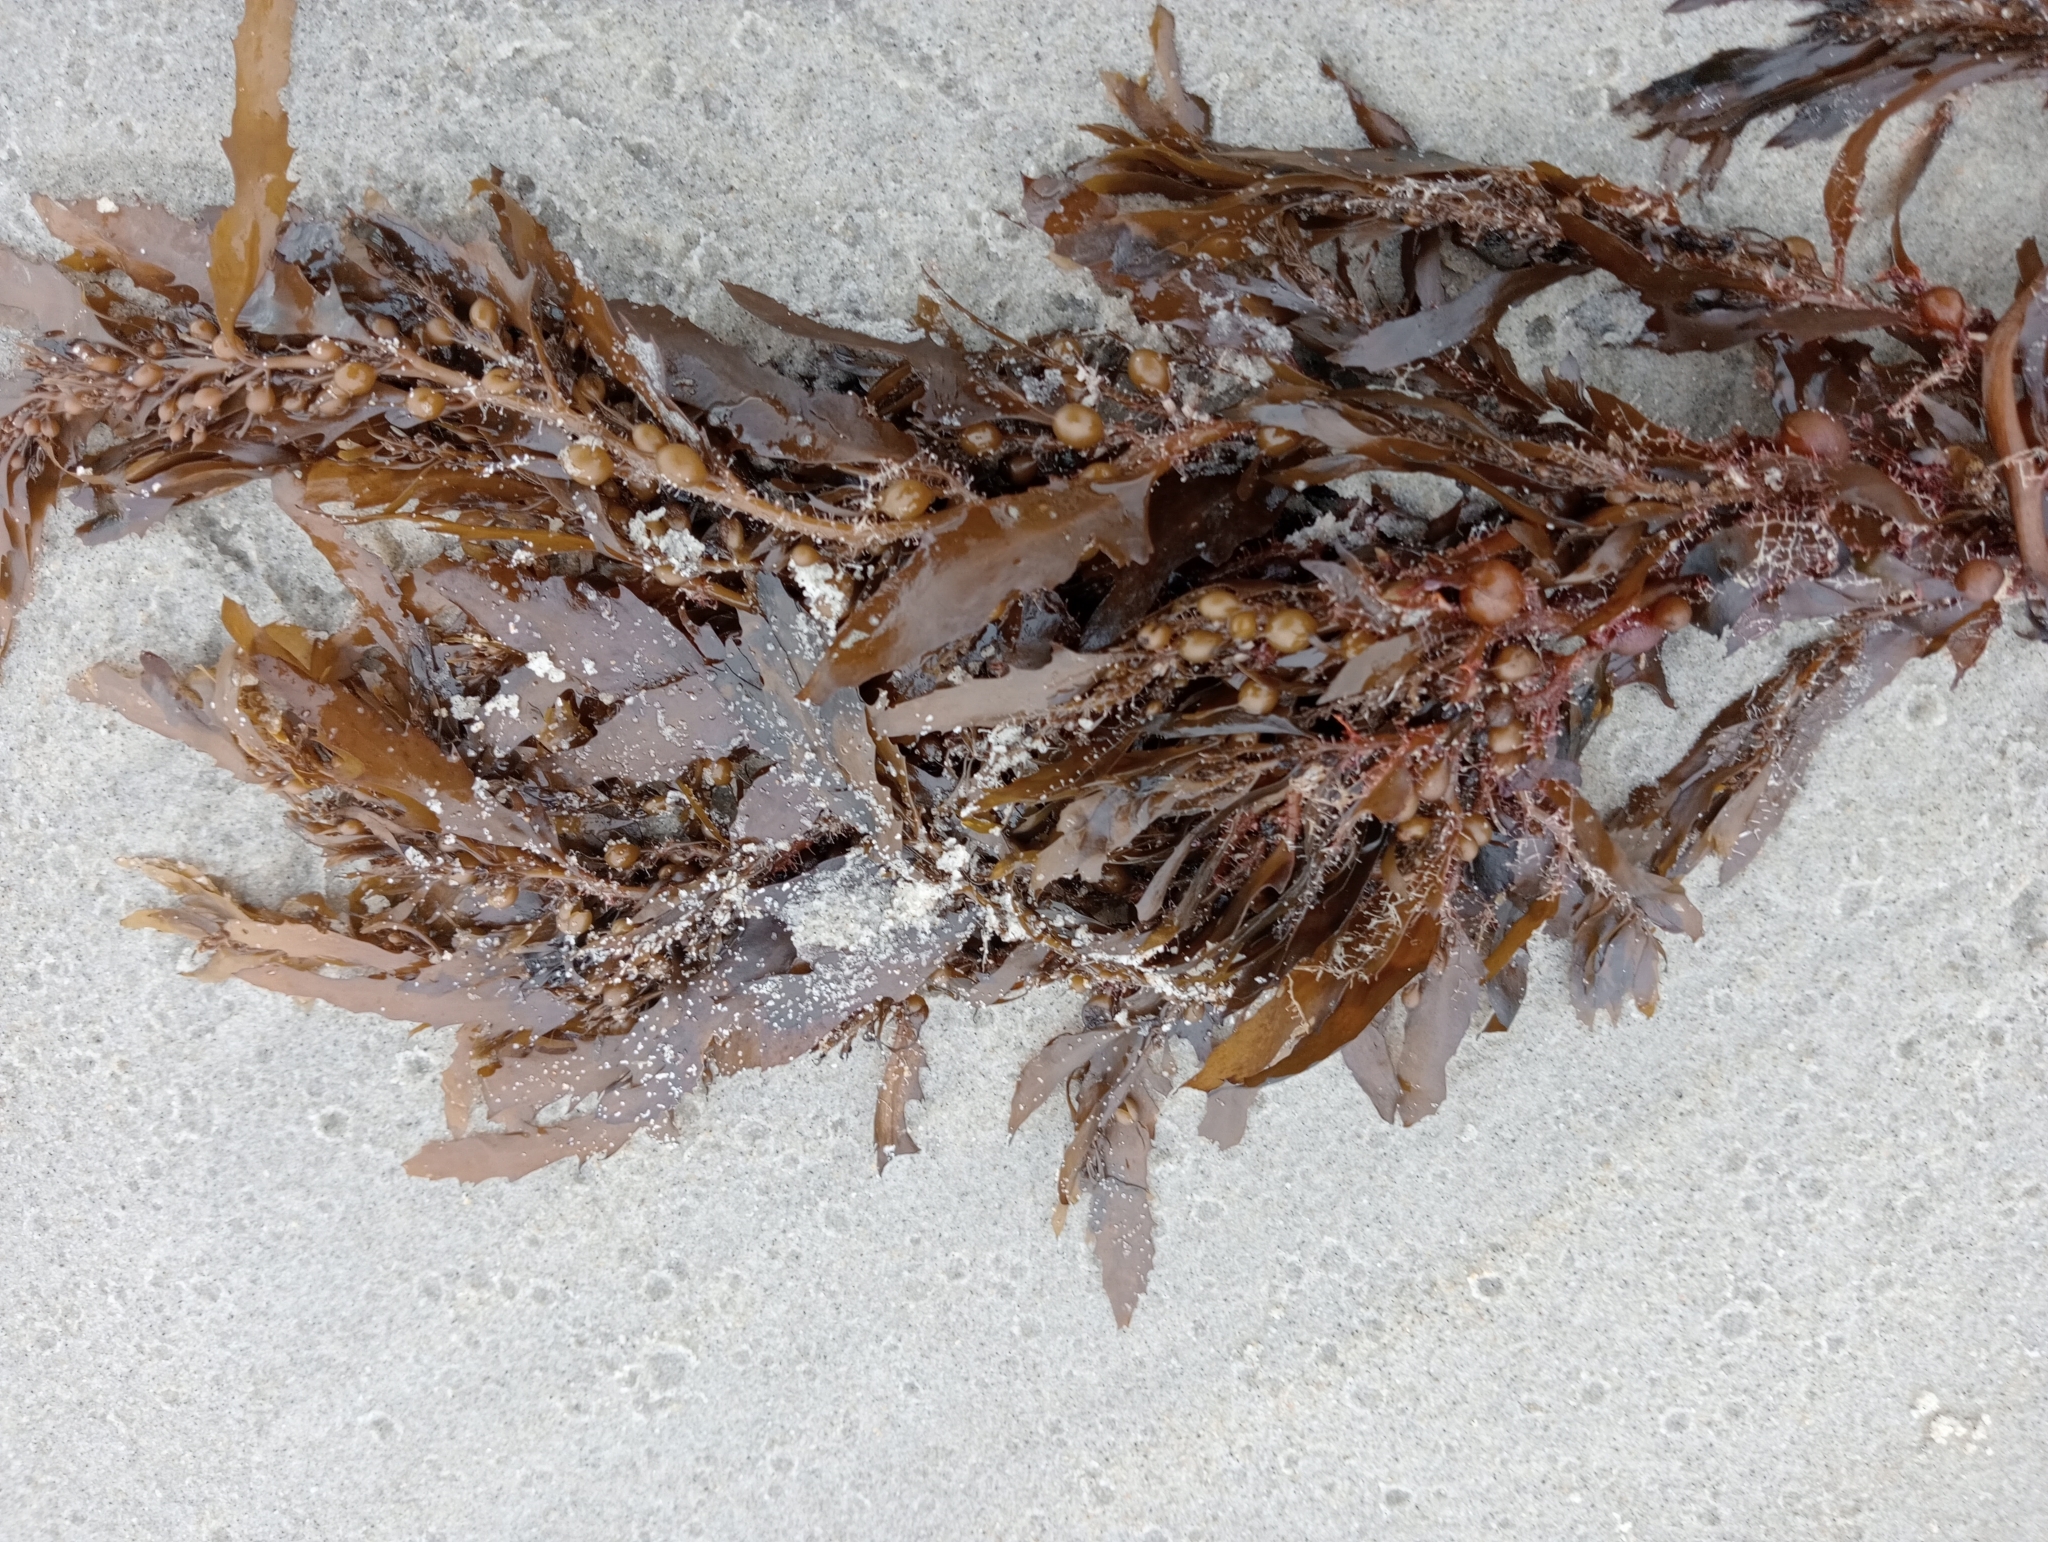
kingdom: Chromista
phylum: Ochrophyta
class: Phaeophyceae
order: Fucales
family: Sargassaceae
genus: Sargassum
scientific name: Sargassum sinclairii
